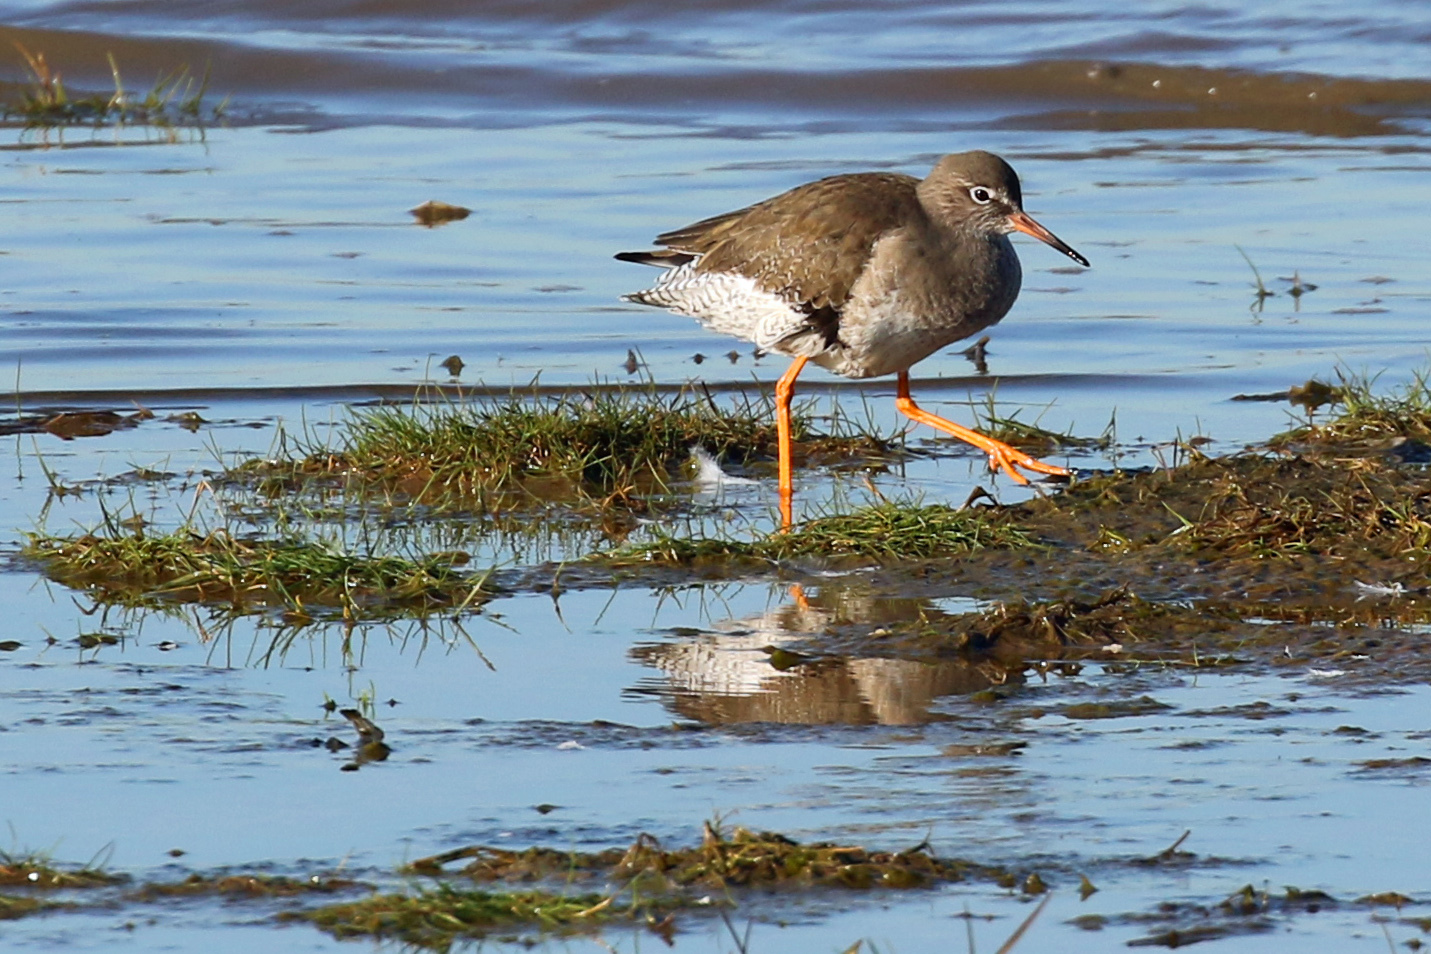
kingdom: Animalia
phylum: Chordata
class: Aves
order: Charadriiformes
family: Scolopacidae
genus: Tringa
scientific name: Tringa totanus
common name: Common redshank
